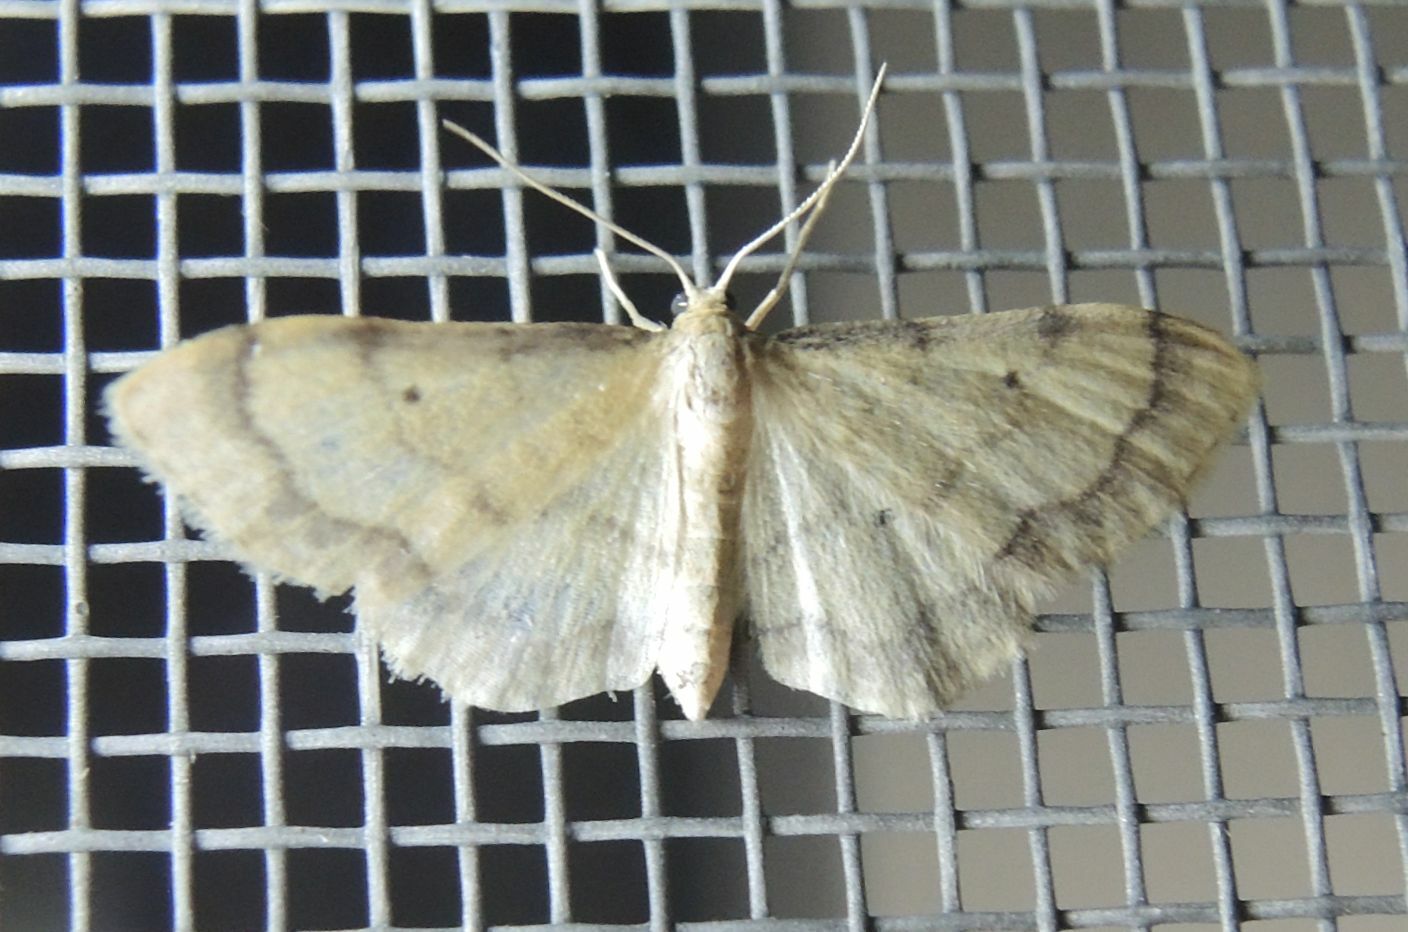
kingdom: Animalia
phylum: Arthropoda
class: Insecta
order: Lepidoptera
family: Geometridae
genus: Idaea
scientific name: Idaea politaria
